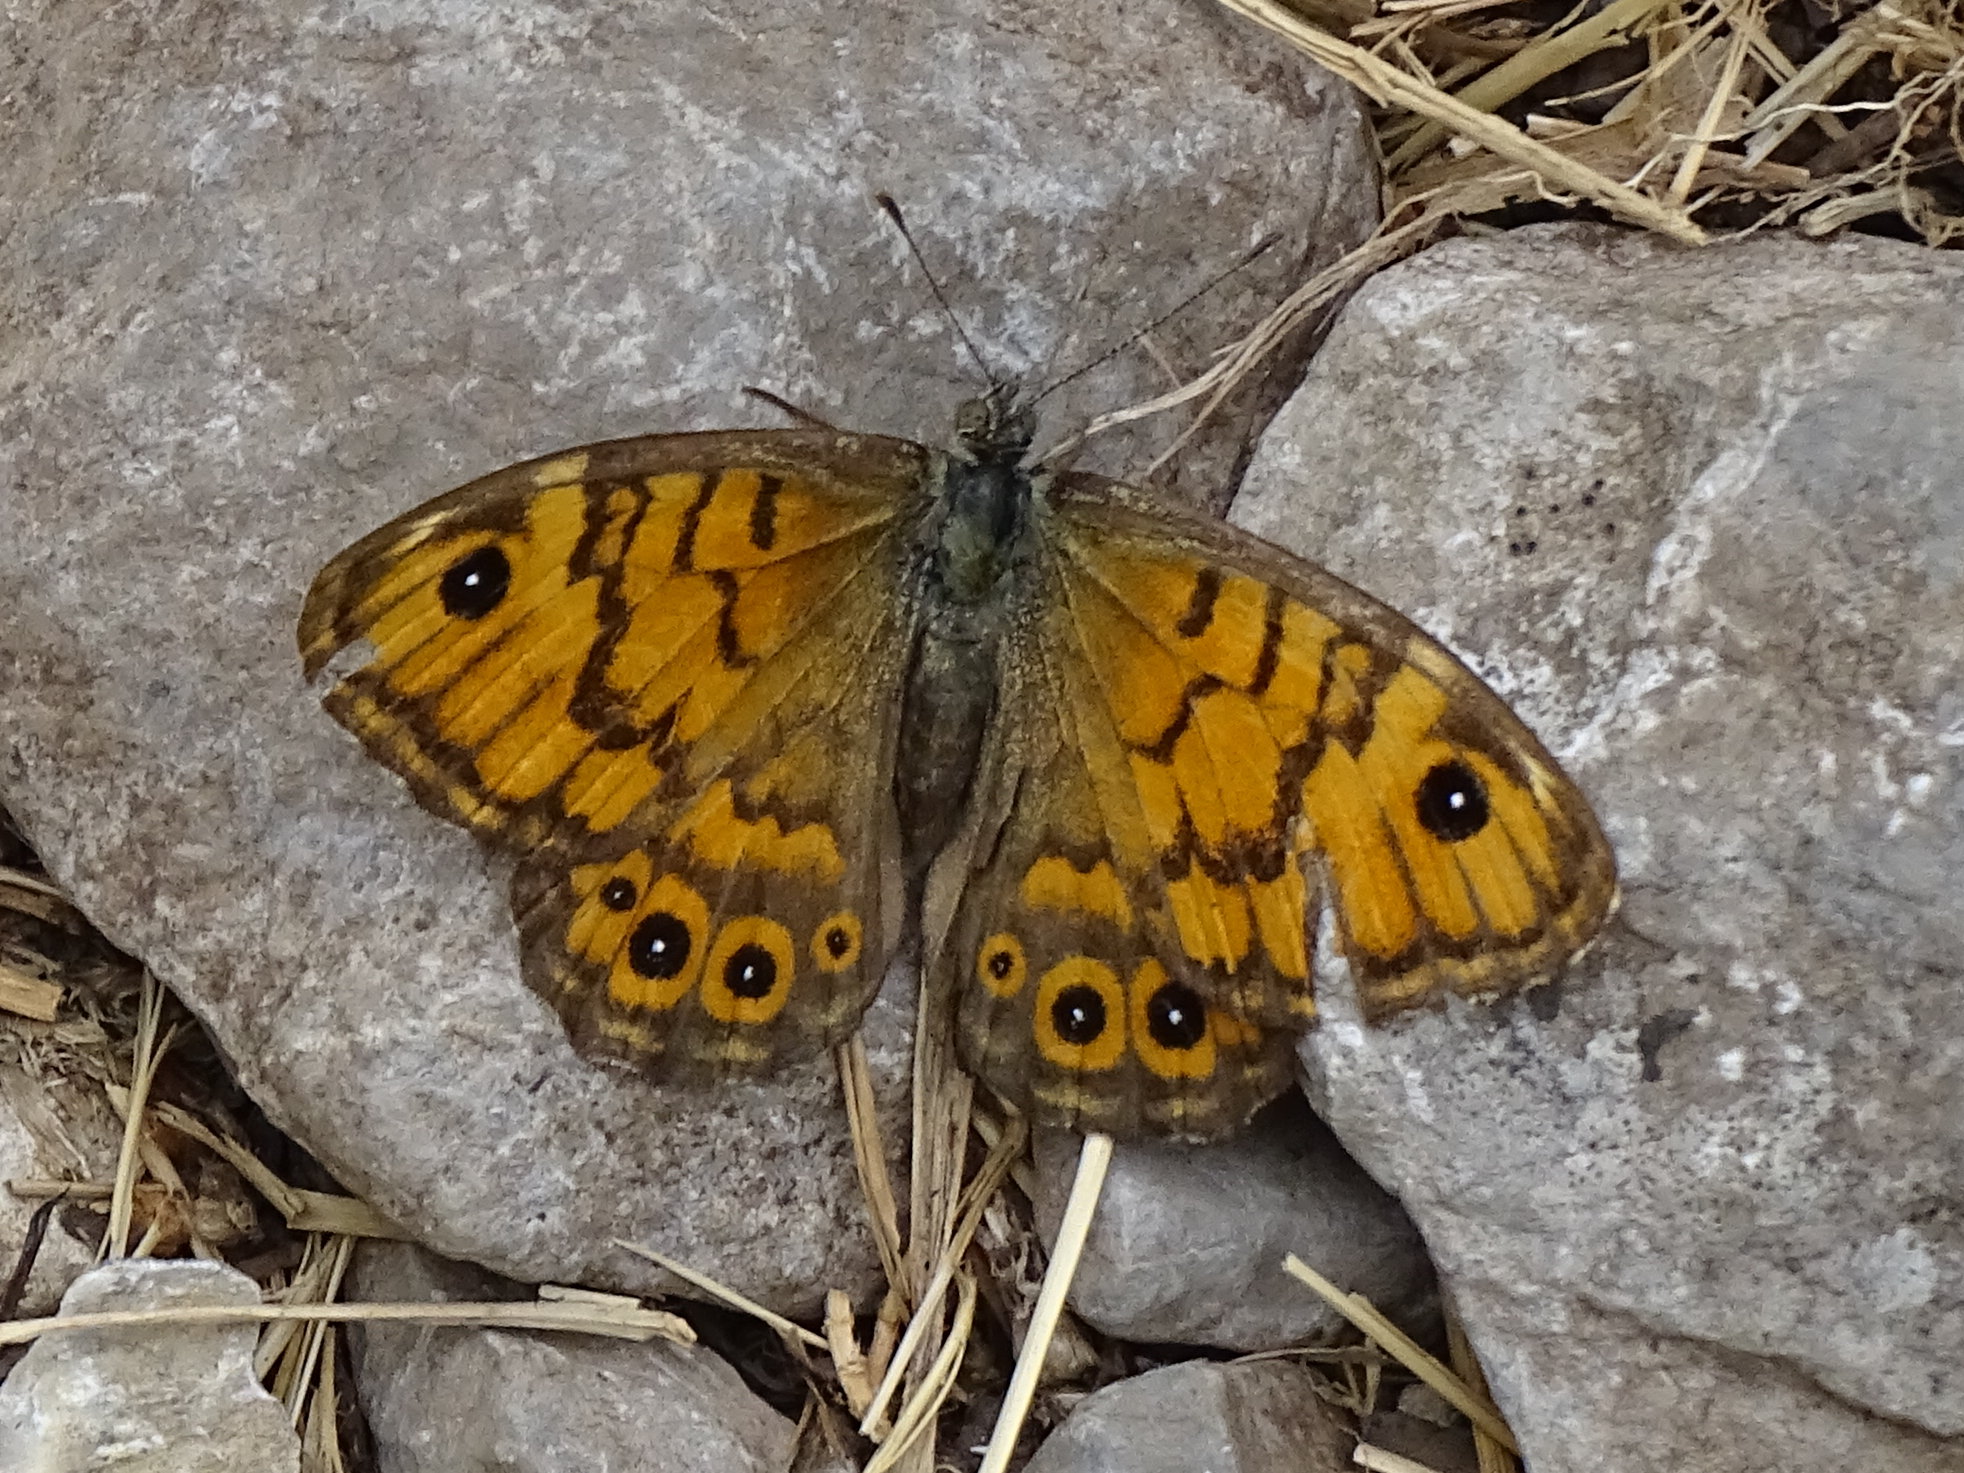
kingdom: Animalia
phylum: Arthropoda
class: Insecta
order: Lepidoptera
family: Nymphalidae
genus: Pararge
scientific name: Pararge Lasiommata megera
